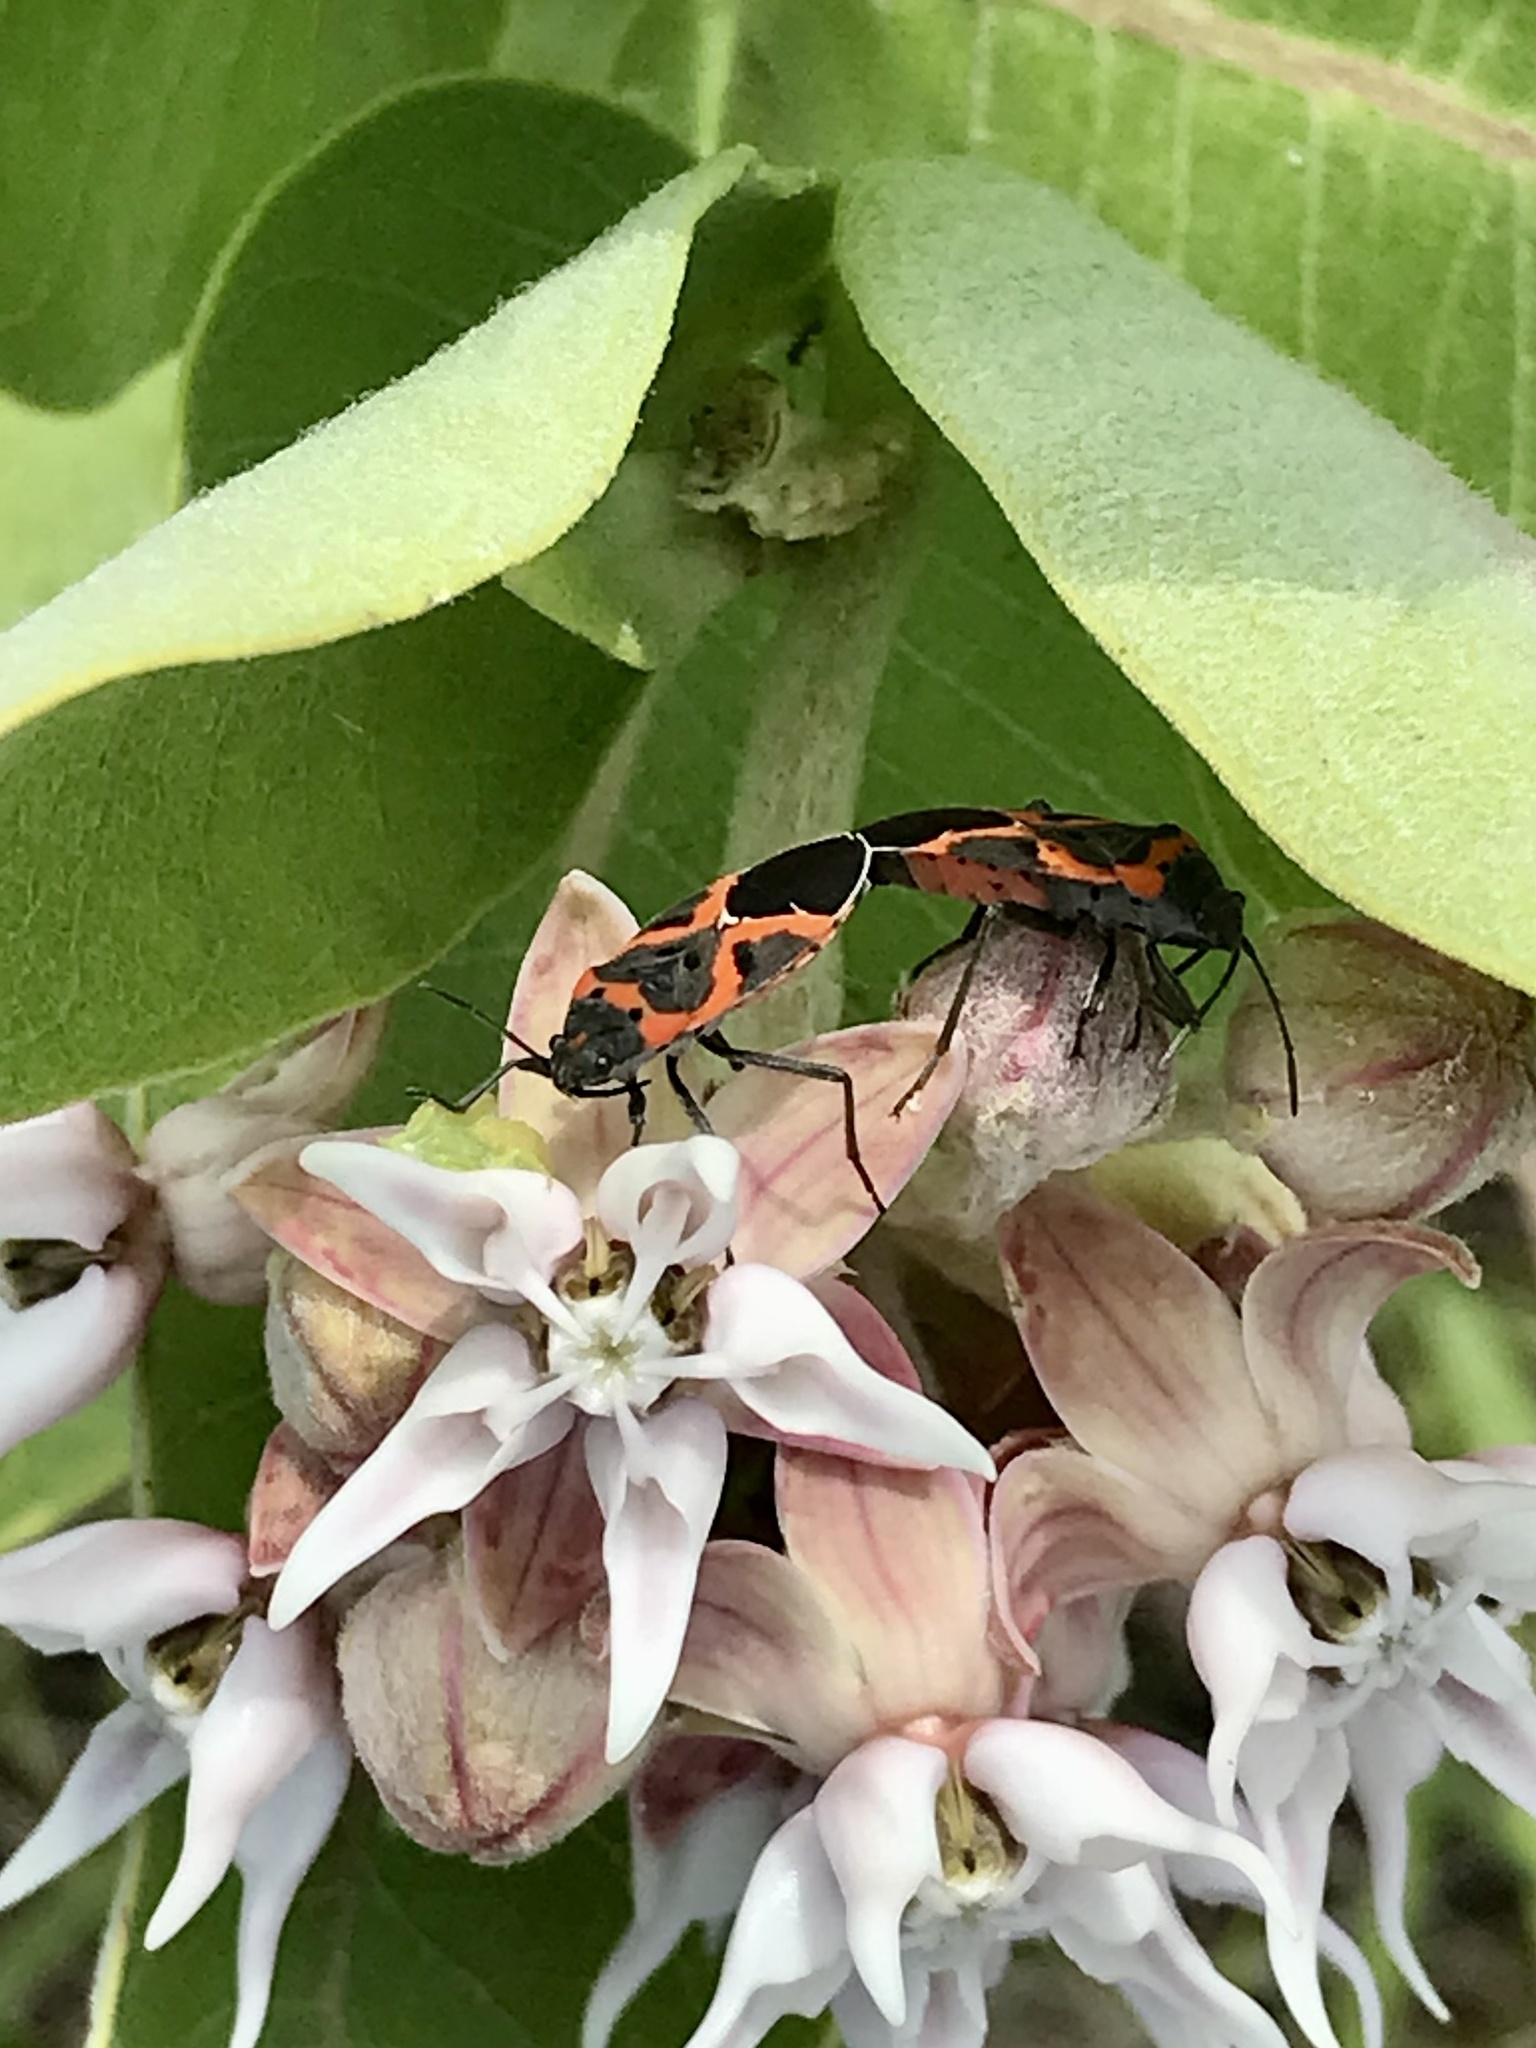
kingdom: Animalia
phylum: Arthropoda
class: Insecta
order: Hemiptera
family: Lygaeidae
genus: Lygaeus
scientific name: Lygaeus kalmii
